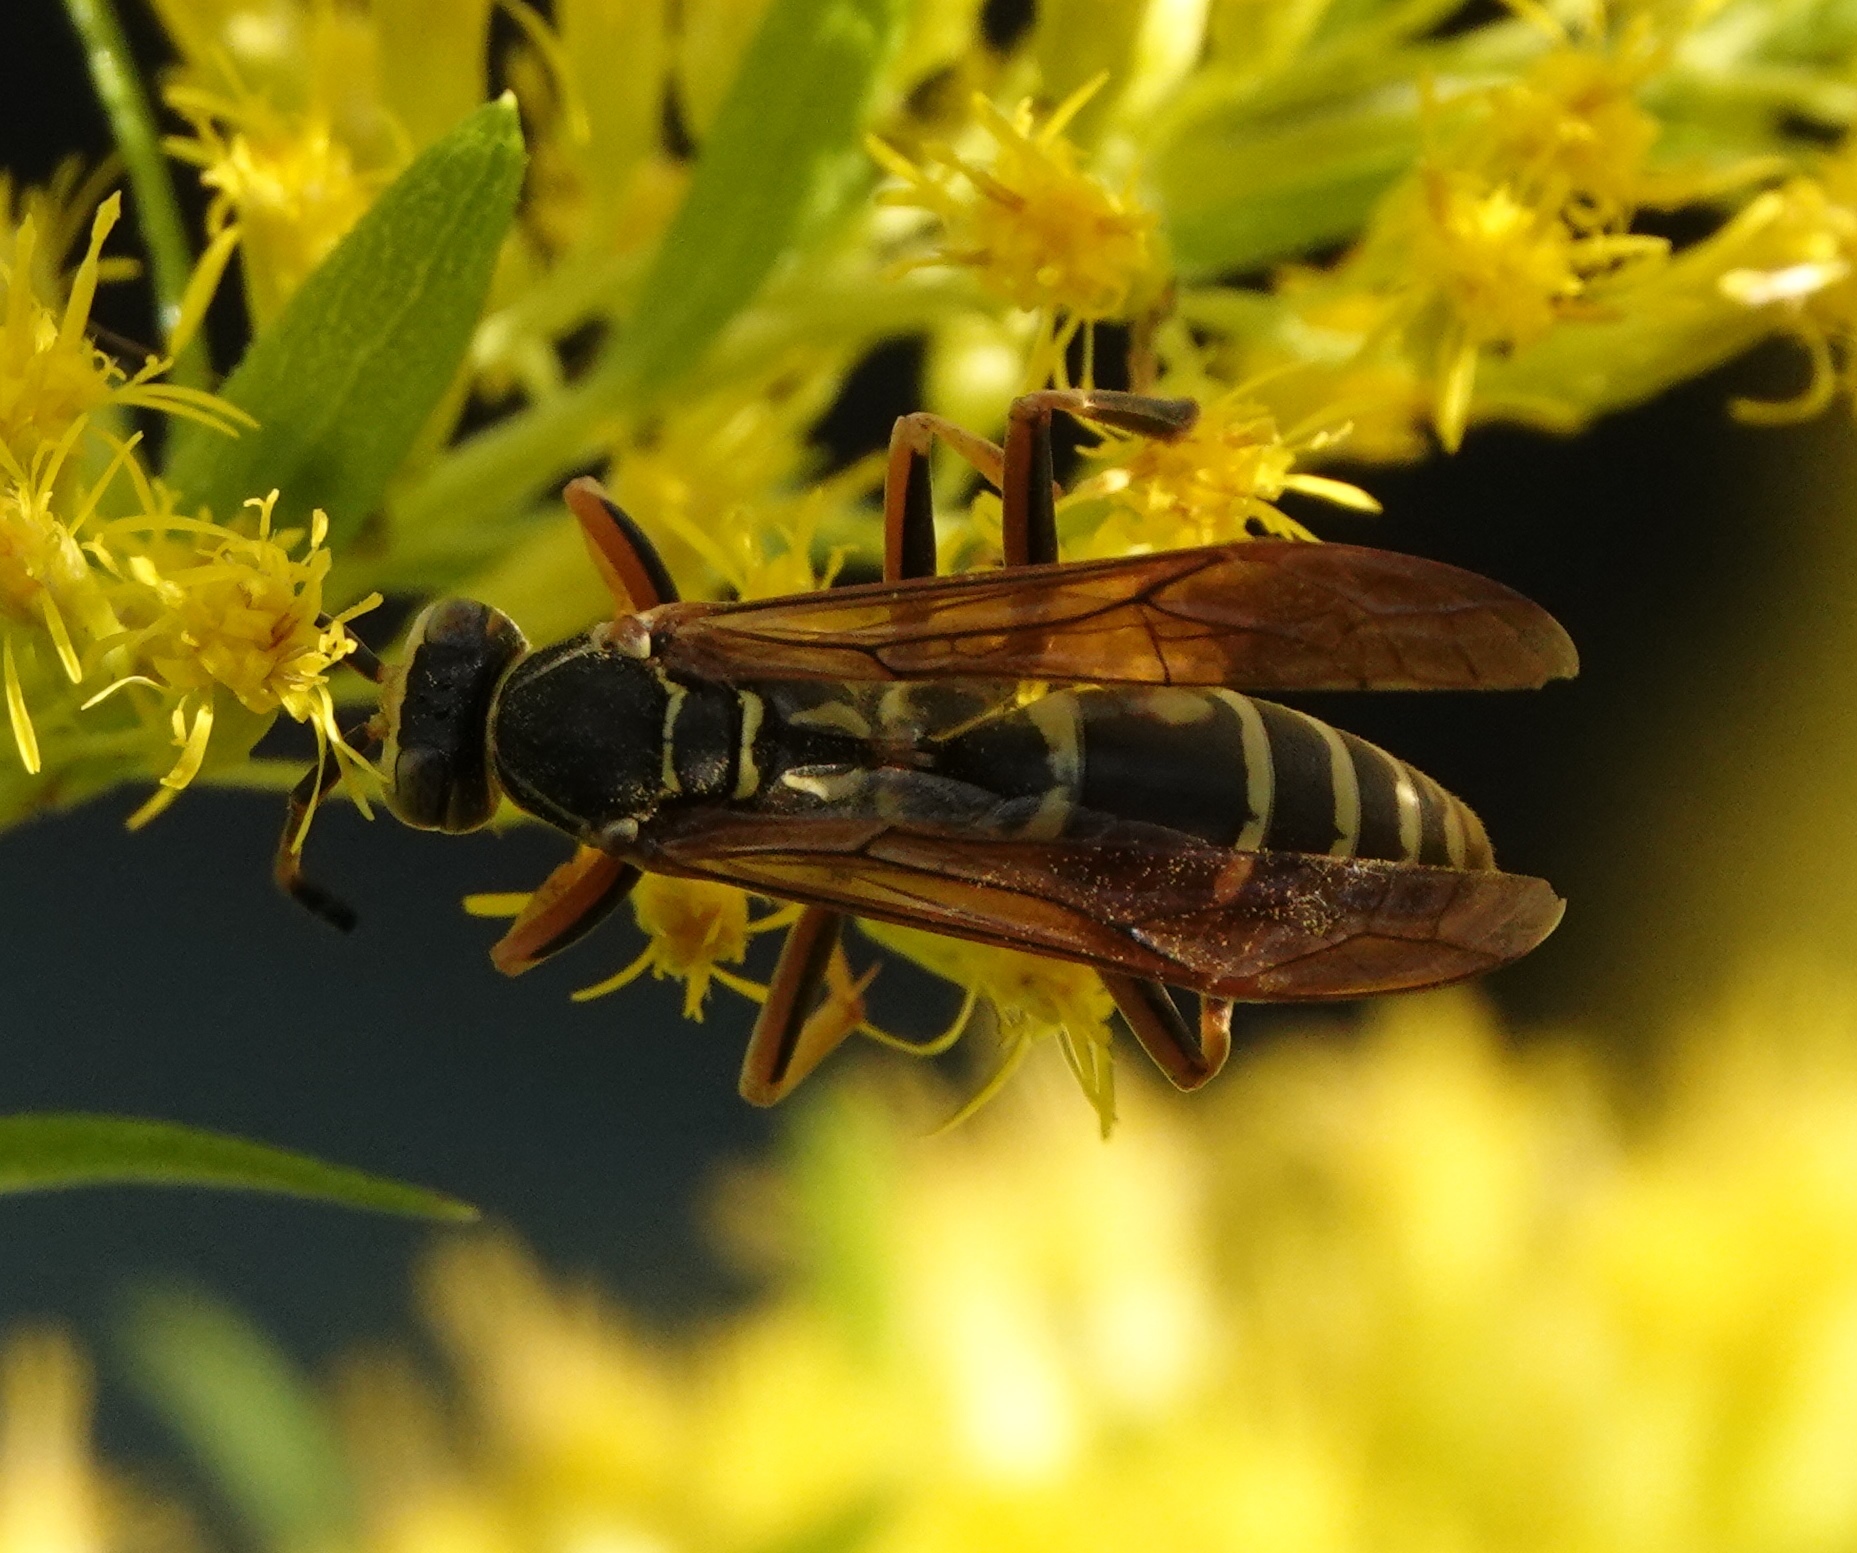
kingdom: Animalia
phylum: Arthropoda
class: Insecta
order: Hymenoptera
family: Eumenidae
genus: Polistes
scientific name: Polistes fuscatus
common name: Dark paper wasp
